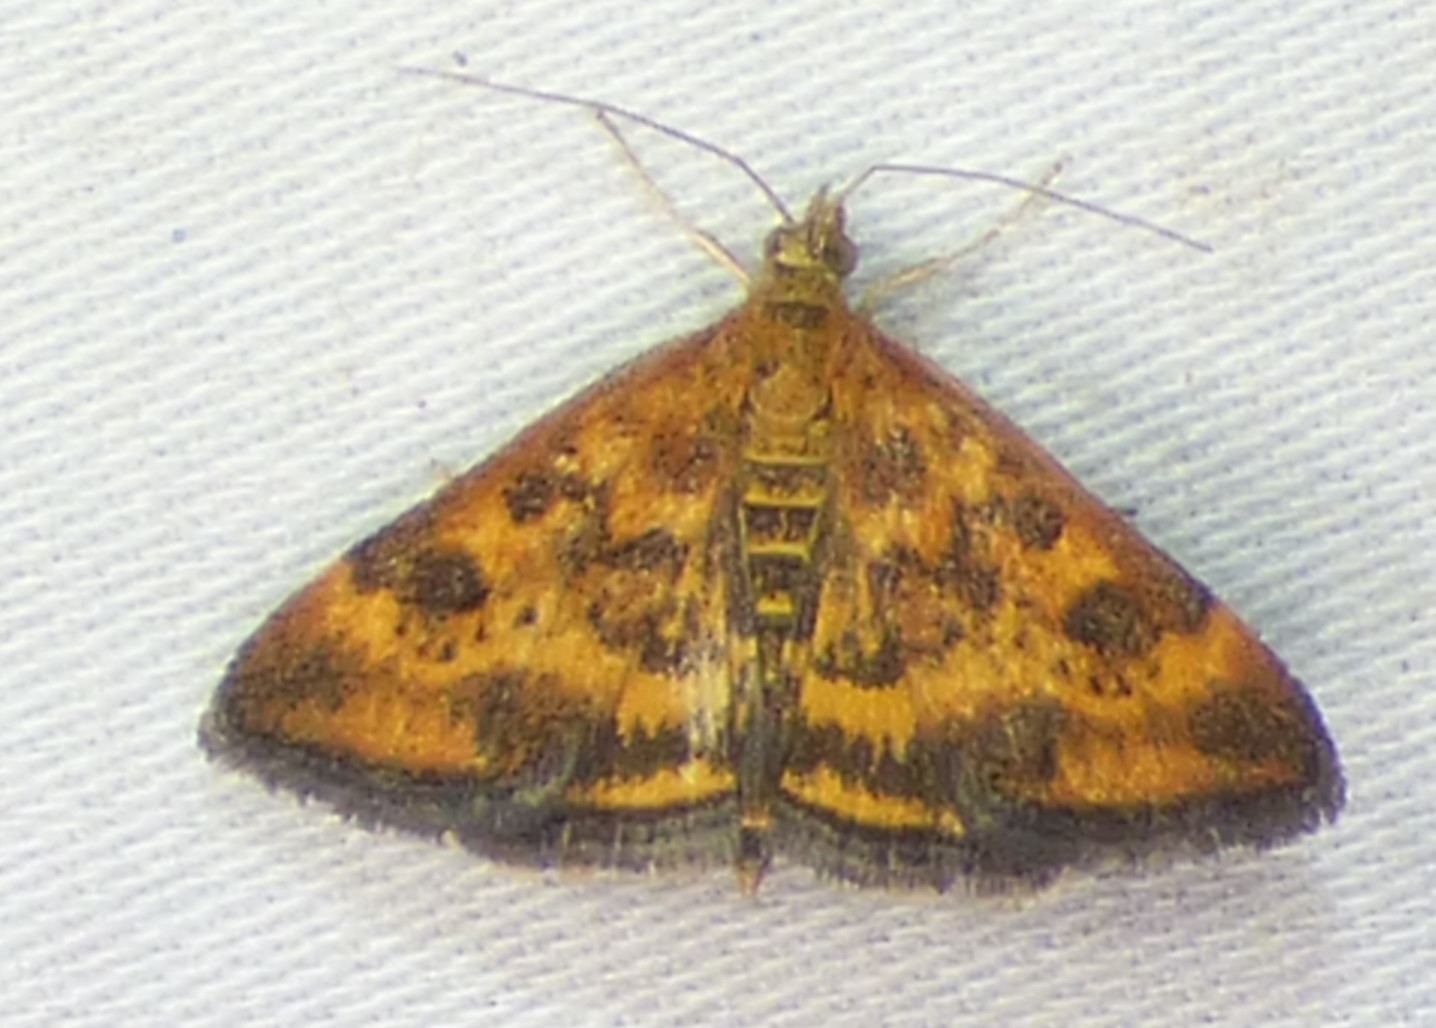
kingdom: Animalia
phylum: Arthropoda
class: Insecta
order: Lepidoptera
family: Crambidae
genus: Pyrausta
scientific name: Pyrausta subsequalis
